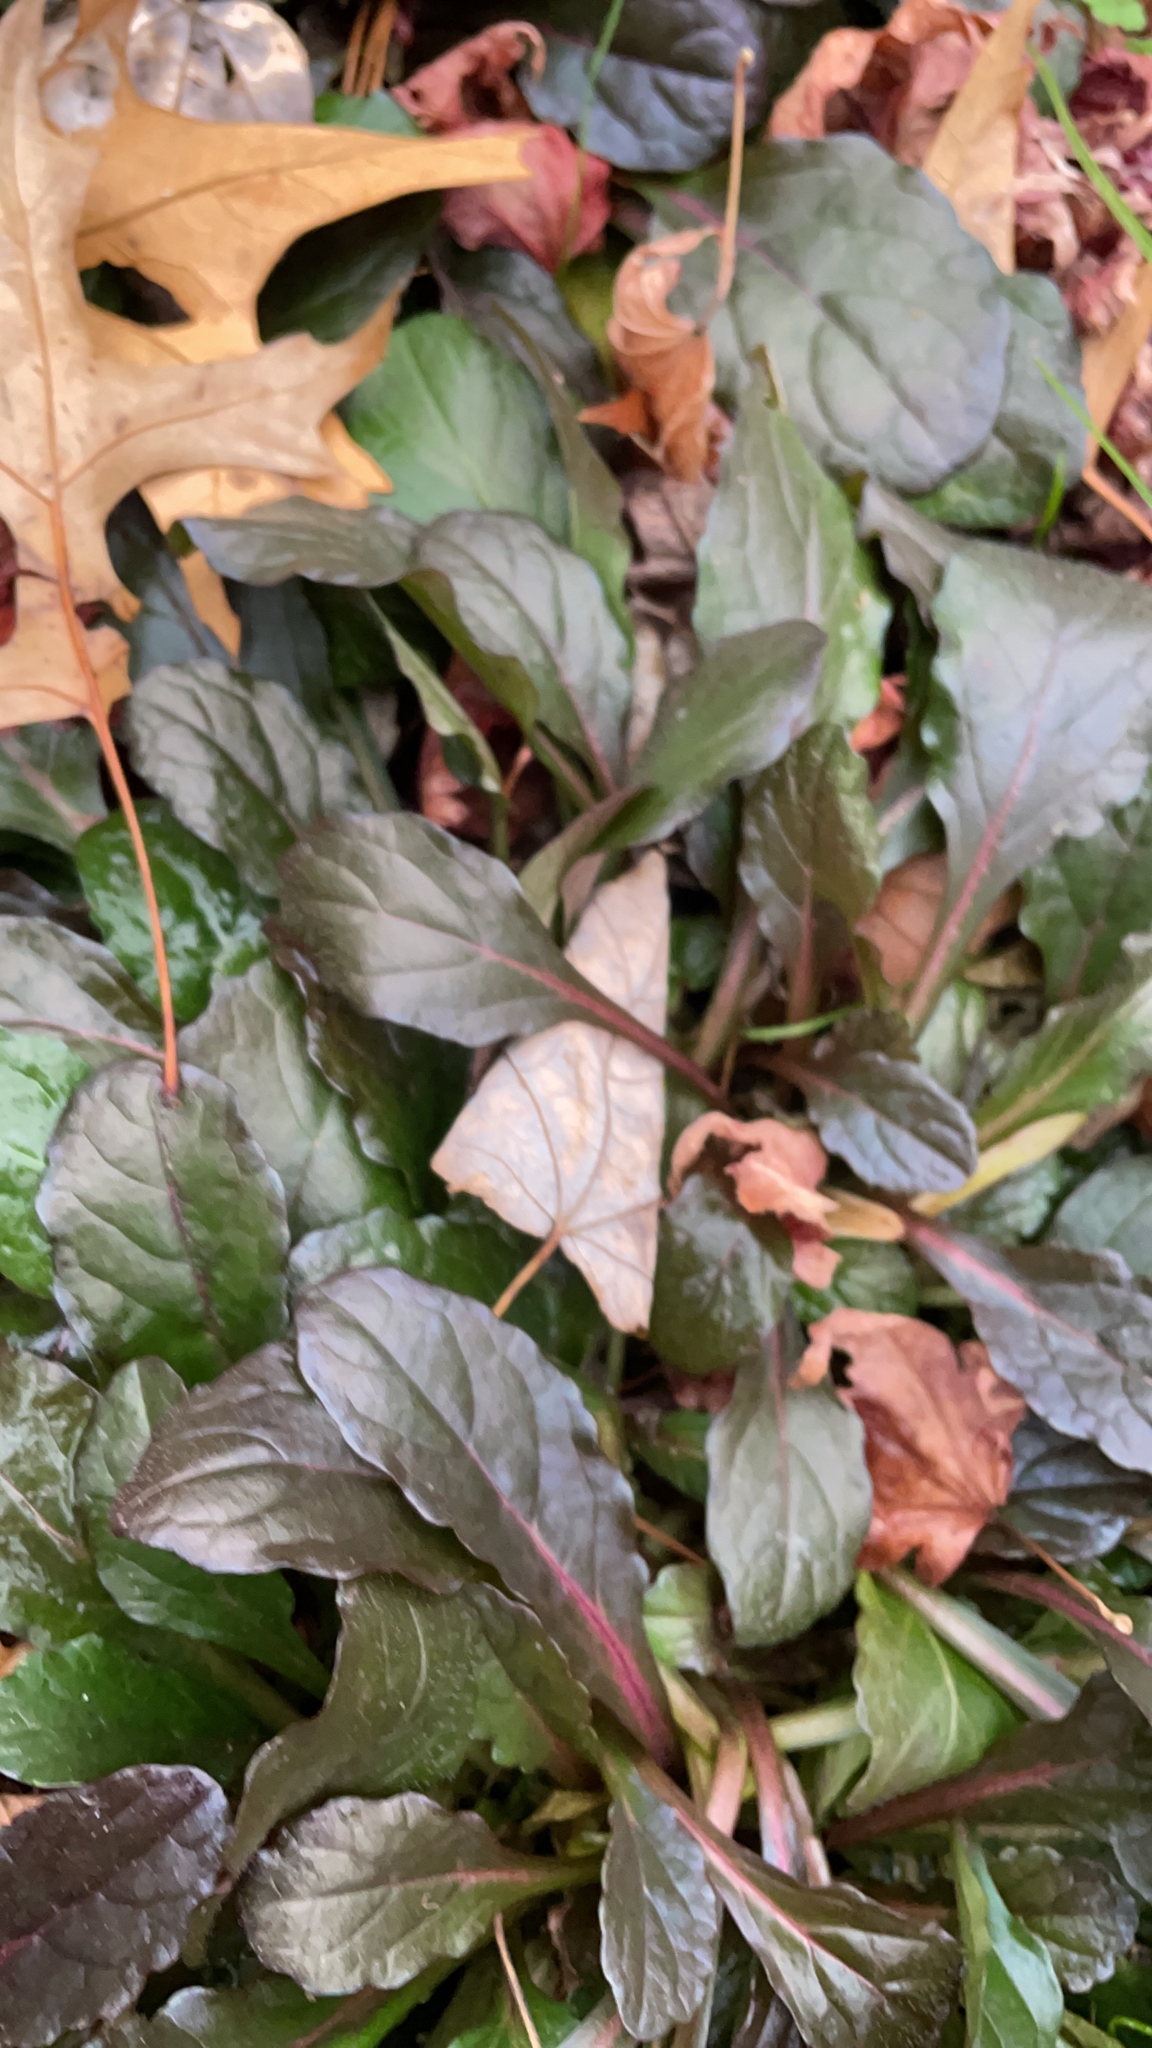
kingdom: Plantae
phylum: Tracheophyta
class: Magnoliopsida
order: Lamiales
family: Lamiaceae
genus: Ajuga
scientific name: Ajuga reptans
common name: Bugle
